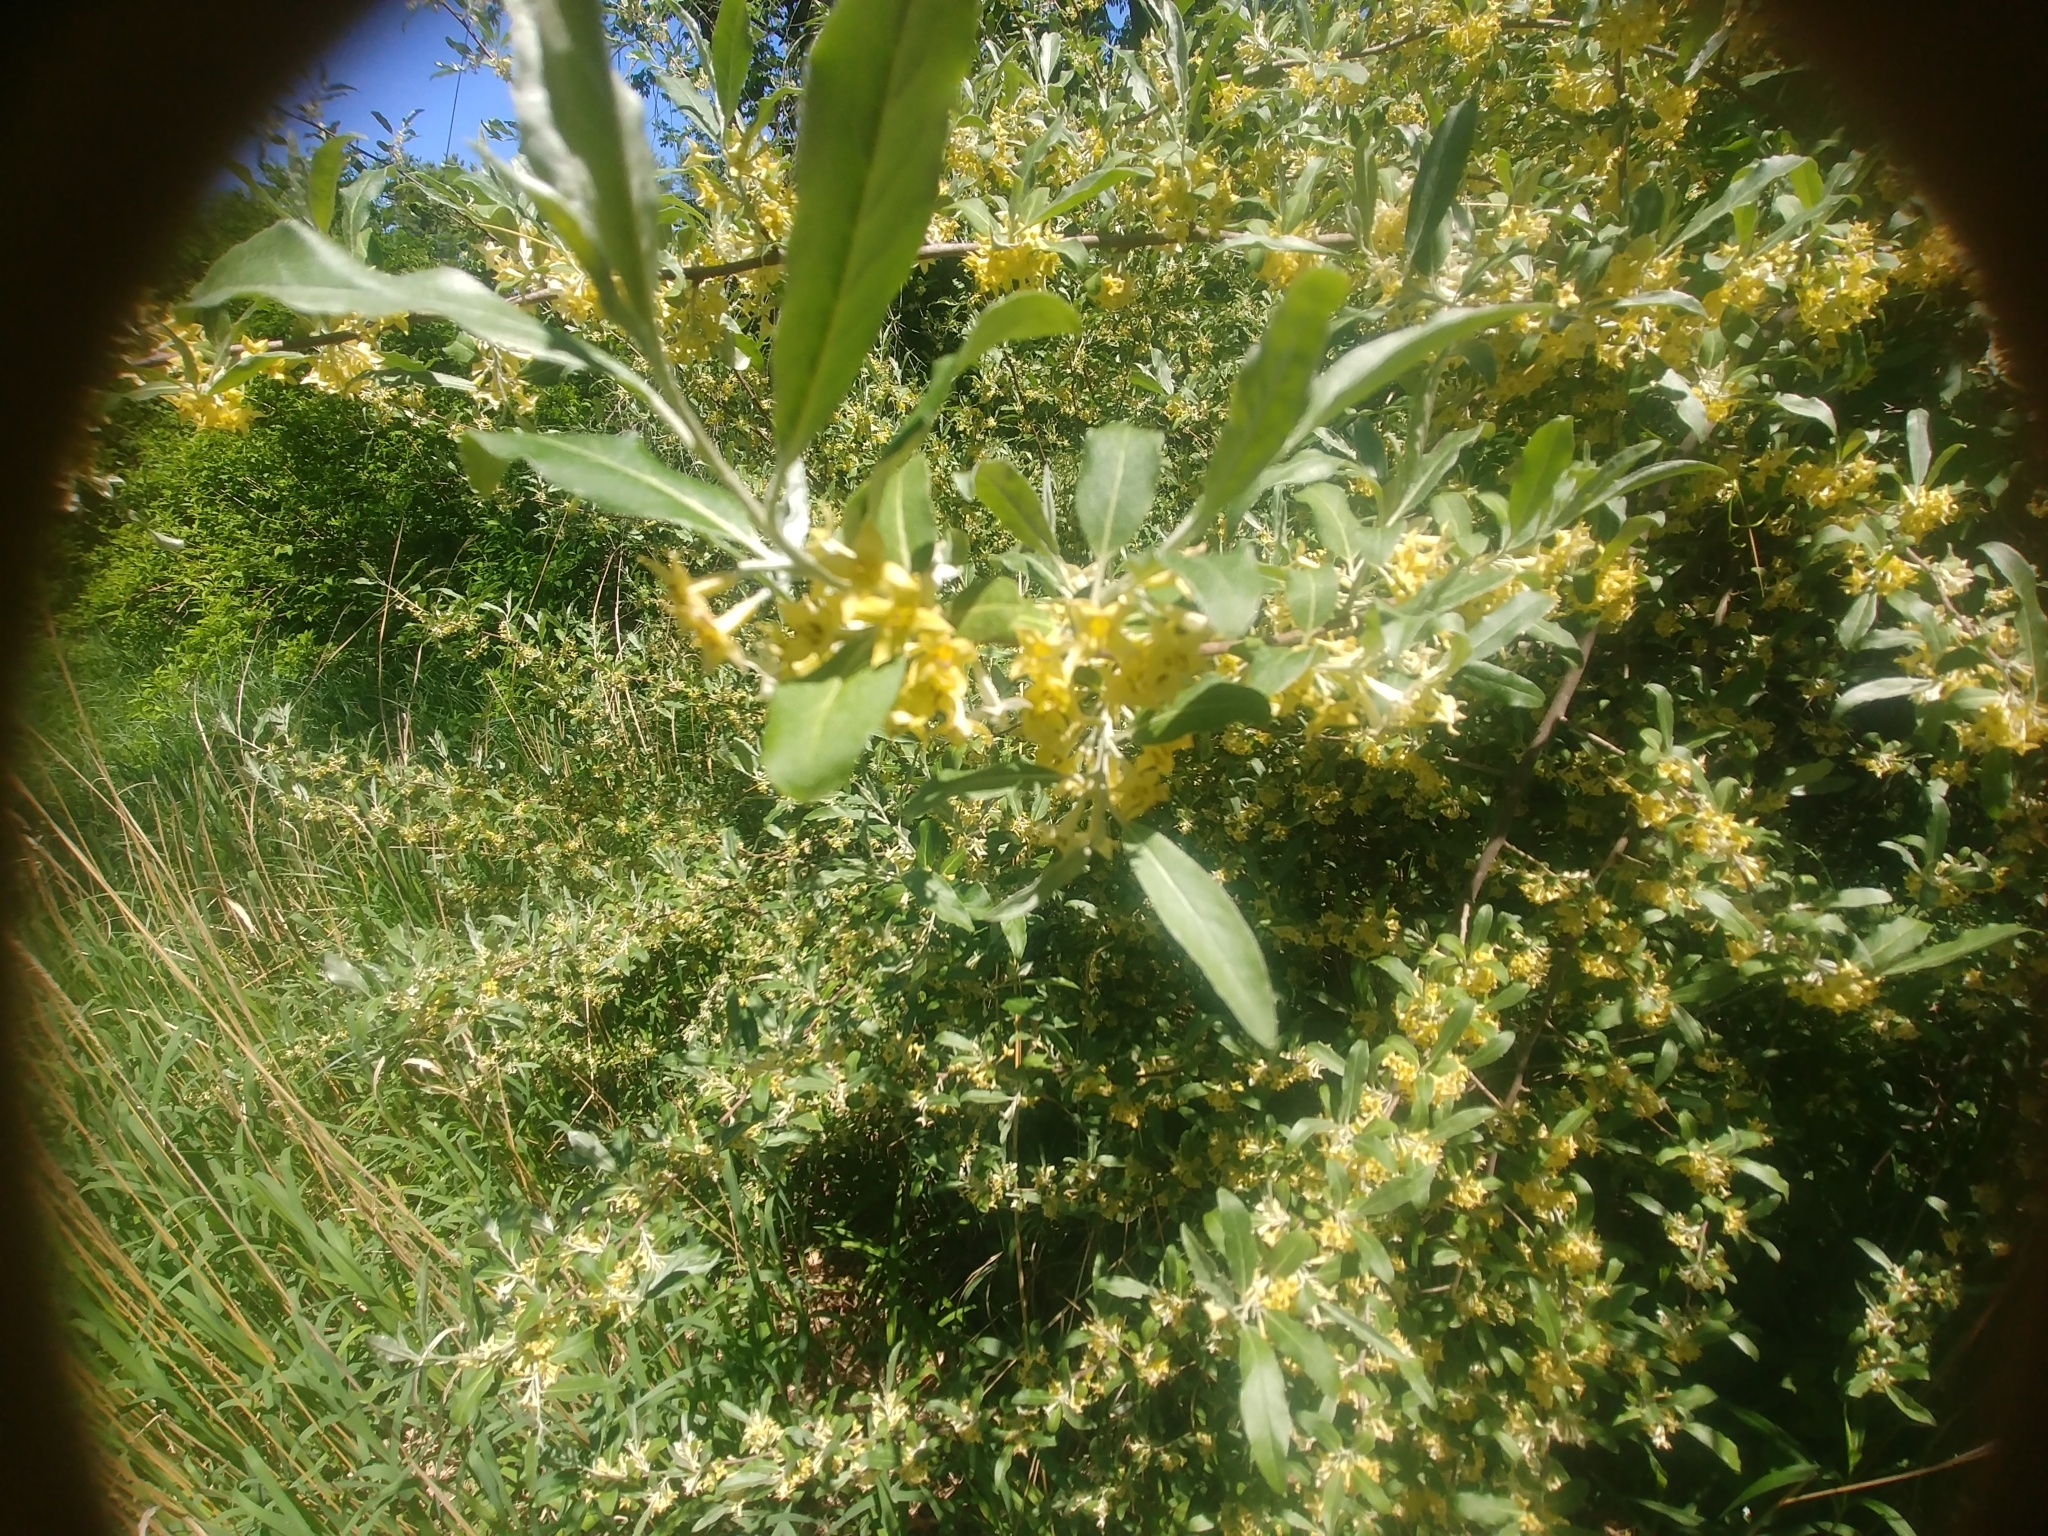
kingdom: Plantae
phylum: Tracheophyta
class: Magnoliopsida
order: Rosales
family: Elaeagnaceae
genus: Elaeagnus
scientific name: Elaeagnus umbellata
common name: Autumn olive
